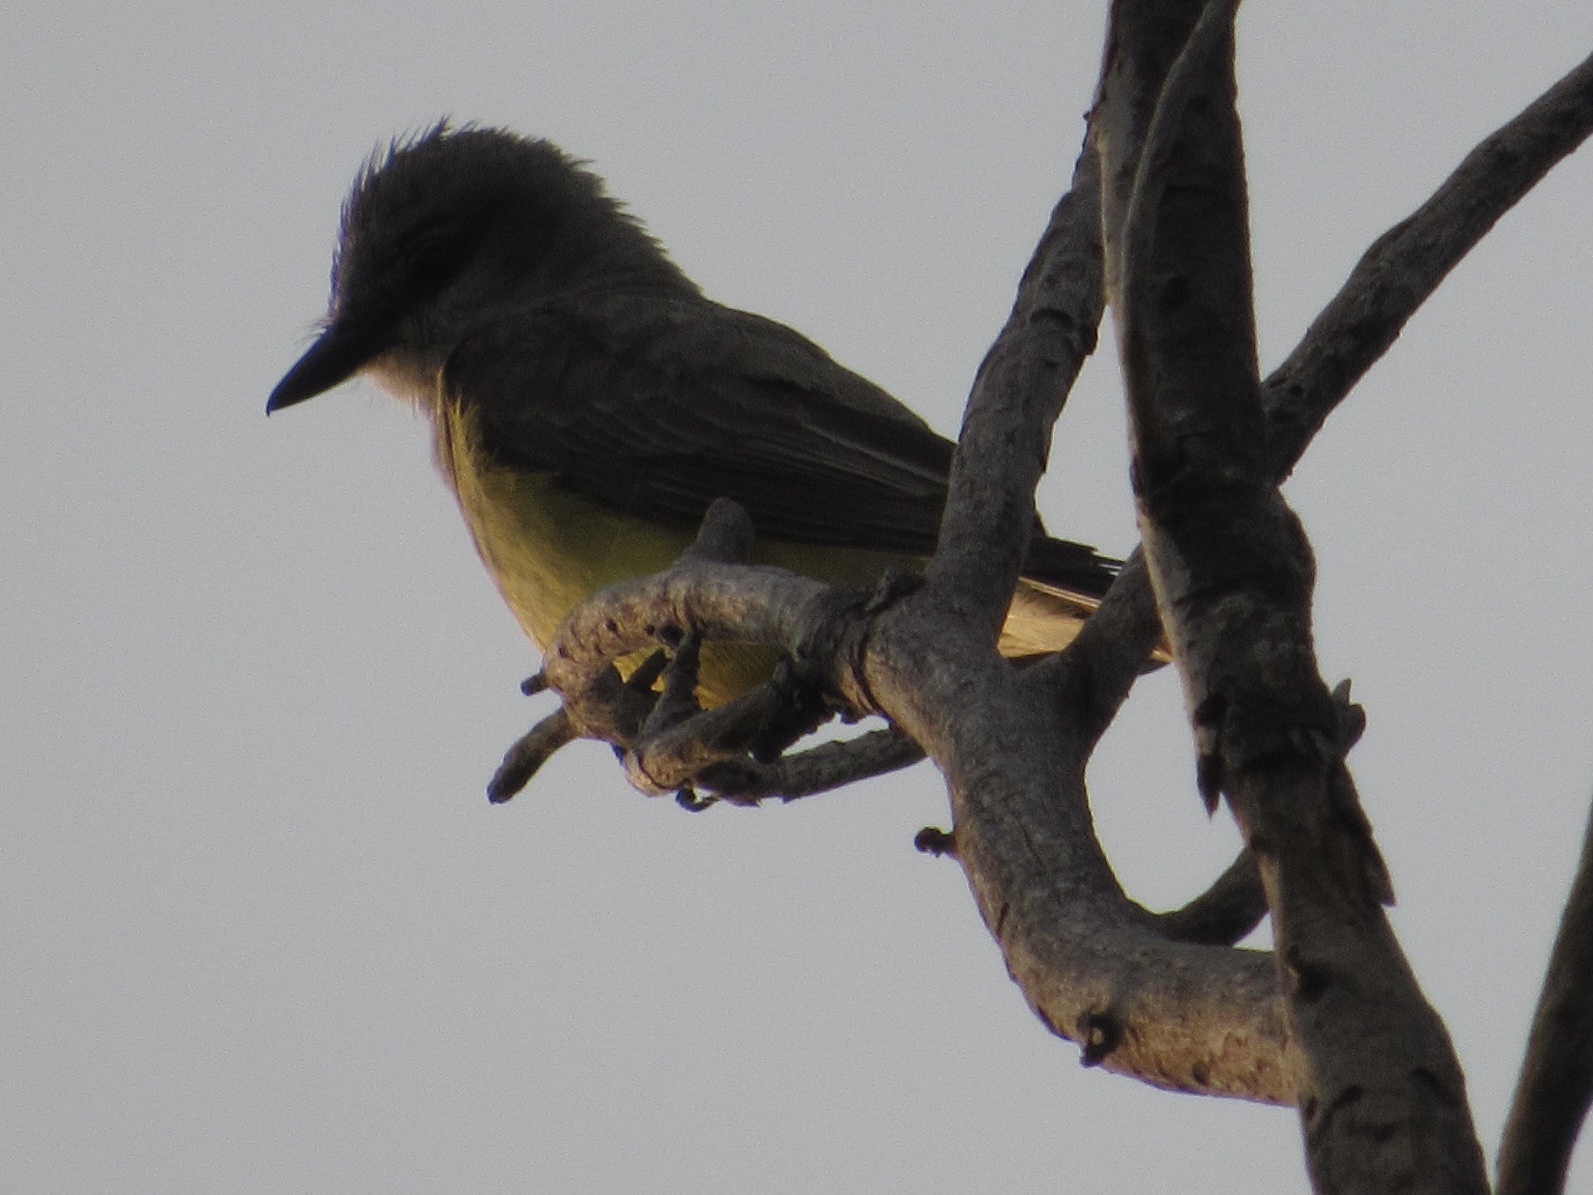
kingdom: Animalia
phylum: Chordata
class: Aves
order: Passeriformes
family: Tyrannidae
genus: Tyrannus
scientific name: Tyrannus verticalis
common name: Western kingbird
